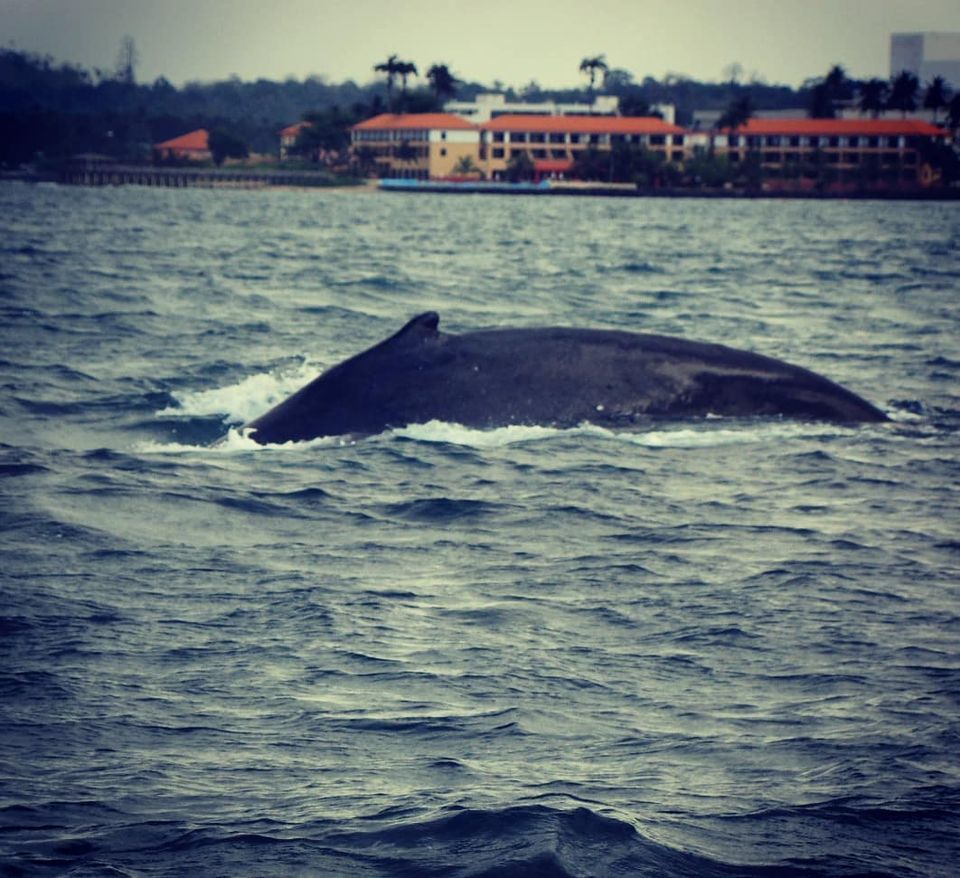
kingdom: Animalia
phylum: Chordata
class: Mammalia
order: Cetacea
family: Balaenopteridae
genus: Megaptera
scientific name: Megaptera novaeangliae
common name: Humpback whale
